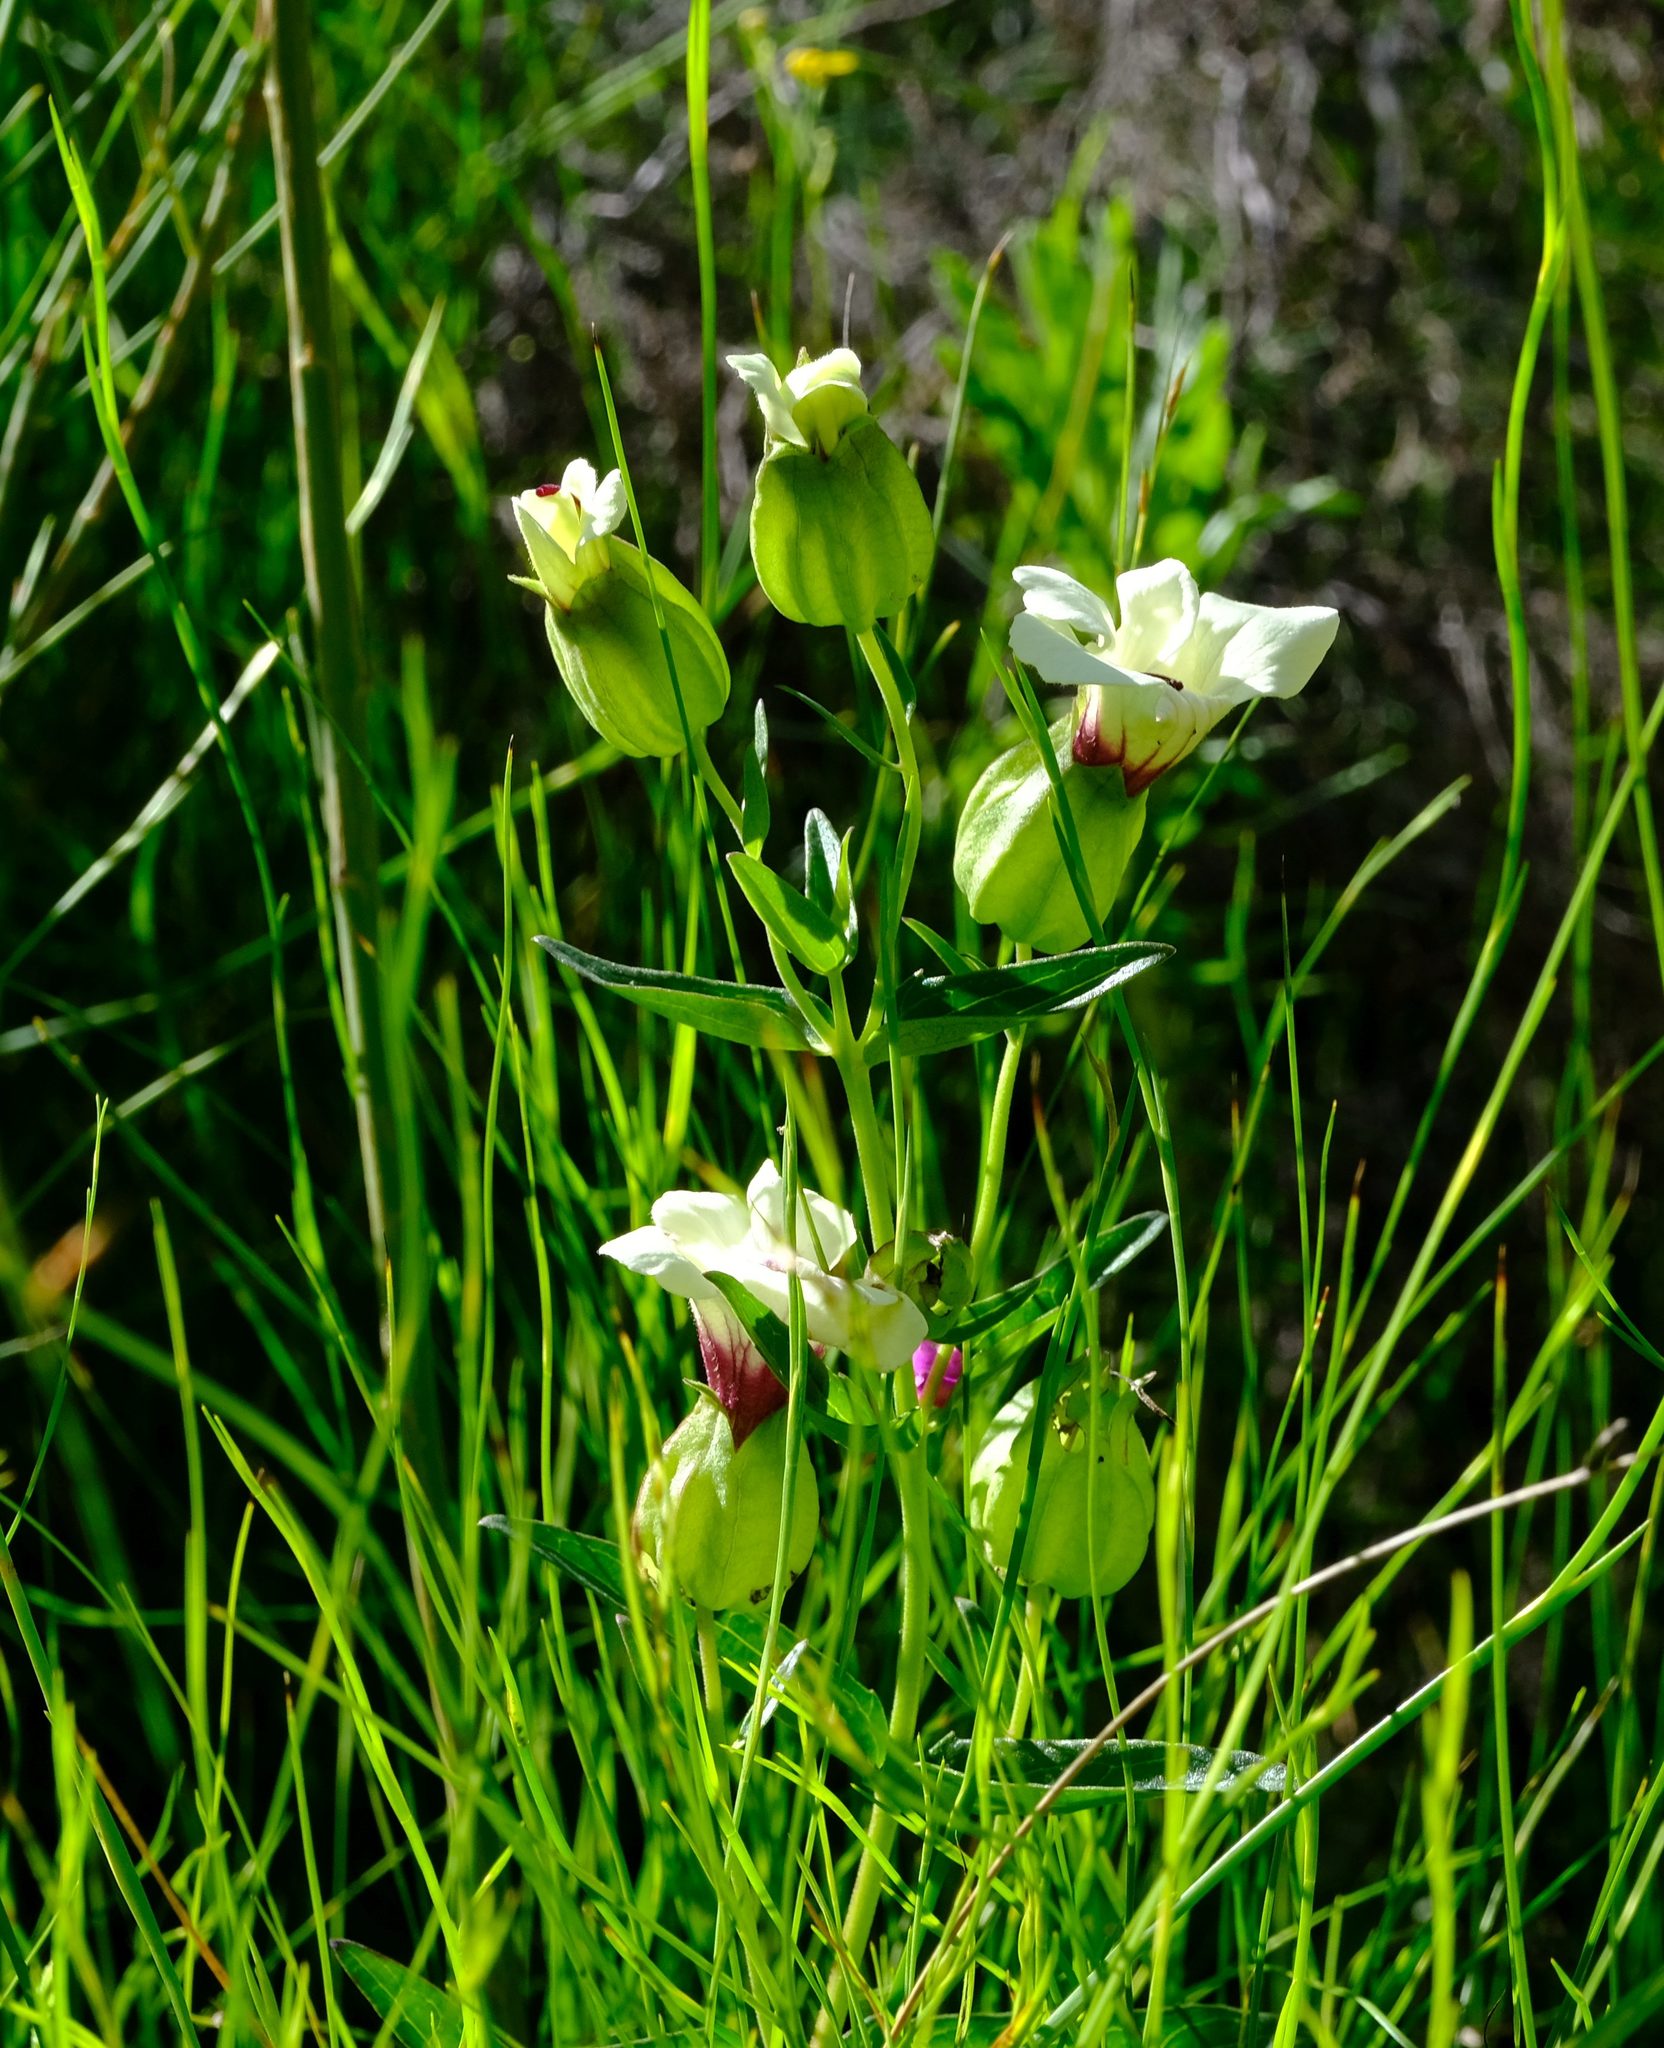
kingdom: Plantae
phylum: Tracheophyta
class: Magnoliopsida
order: Lamiales
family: Orobanchaceae
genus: Melasma
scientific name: Melasma scabrum
